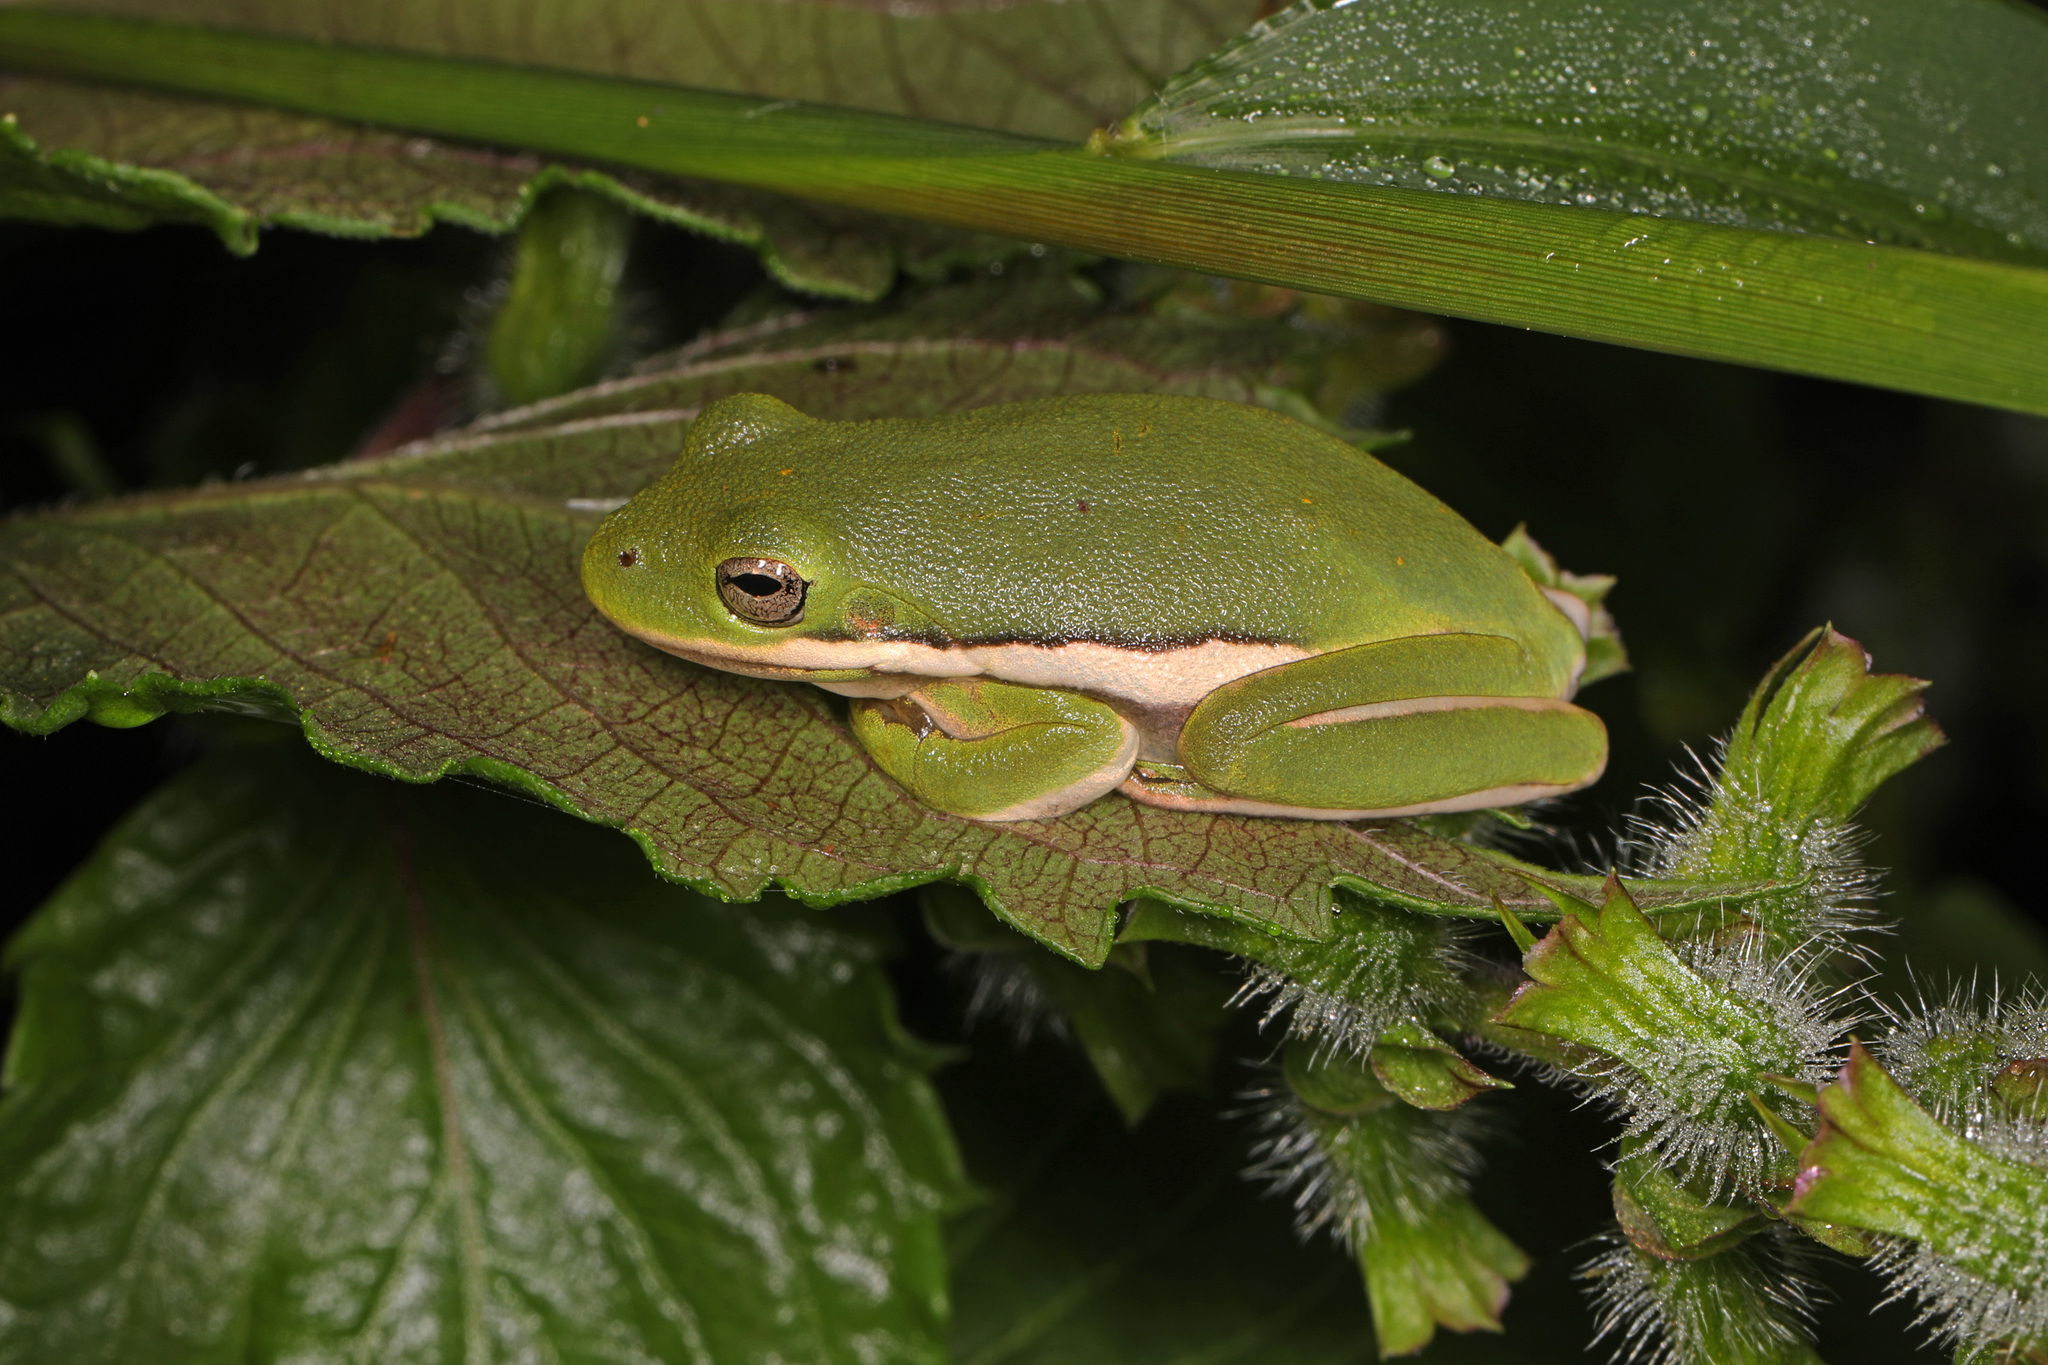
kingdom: Animalia
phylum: Chordata
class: Amphibia
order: Anura
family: Hylidae
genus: Dryophytes
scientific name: Dryophytes cinereus
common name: Green treefrog
